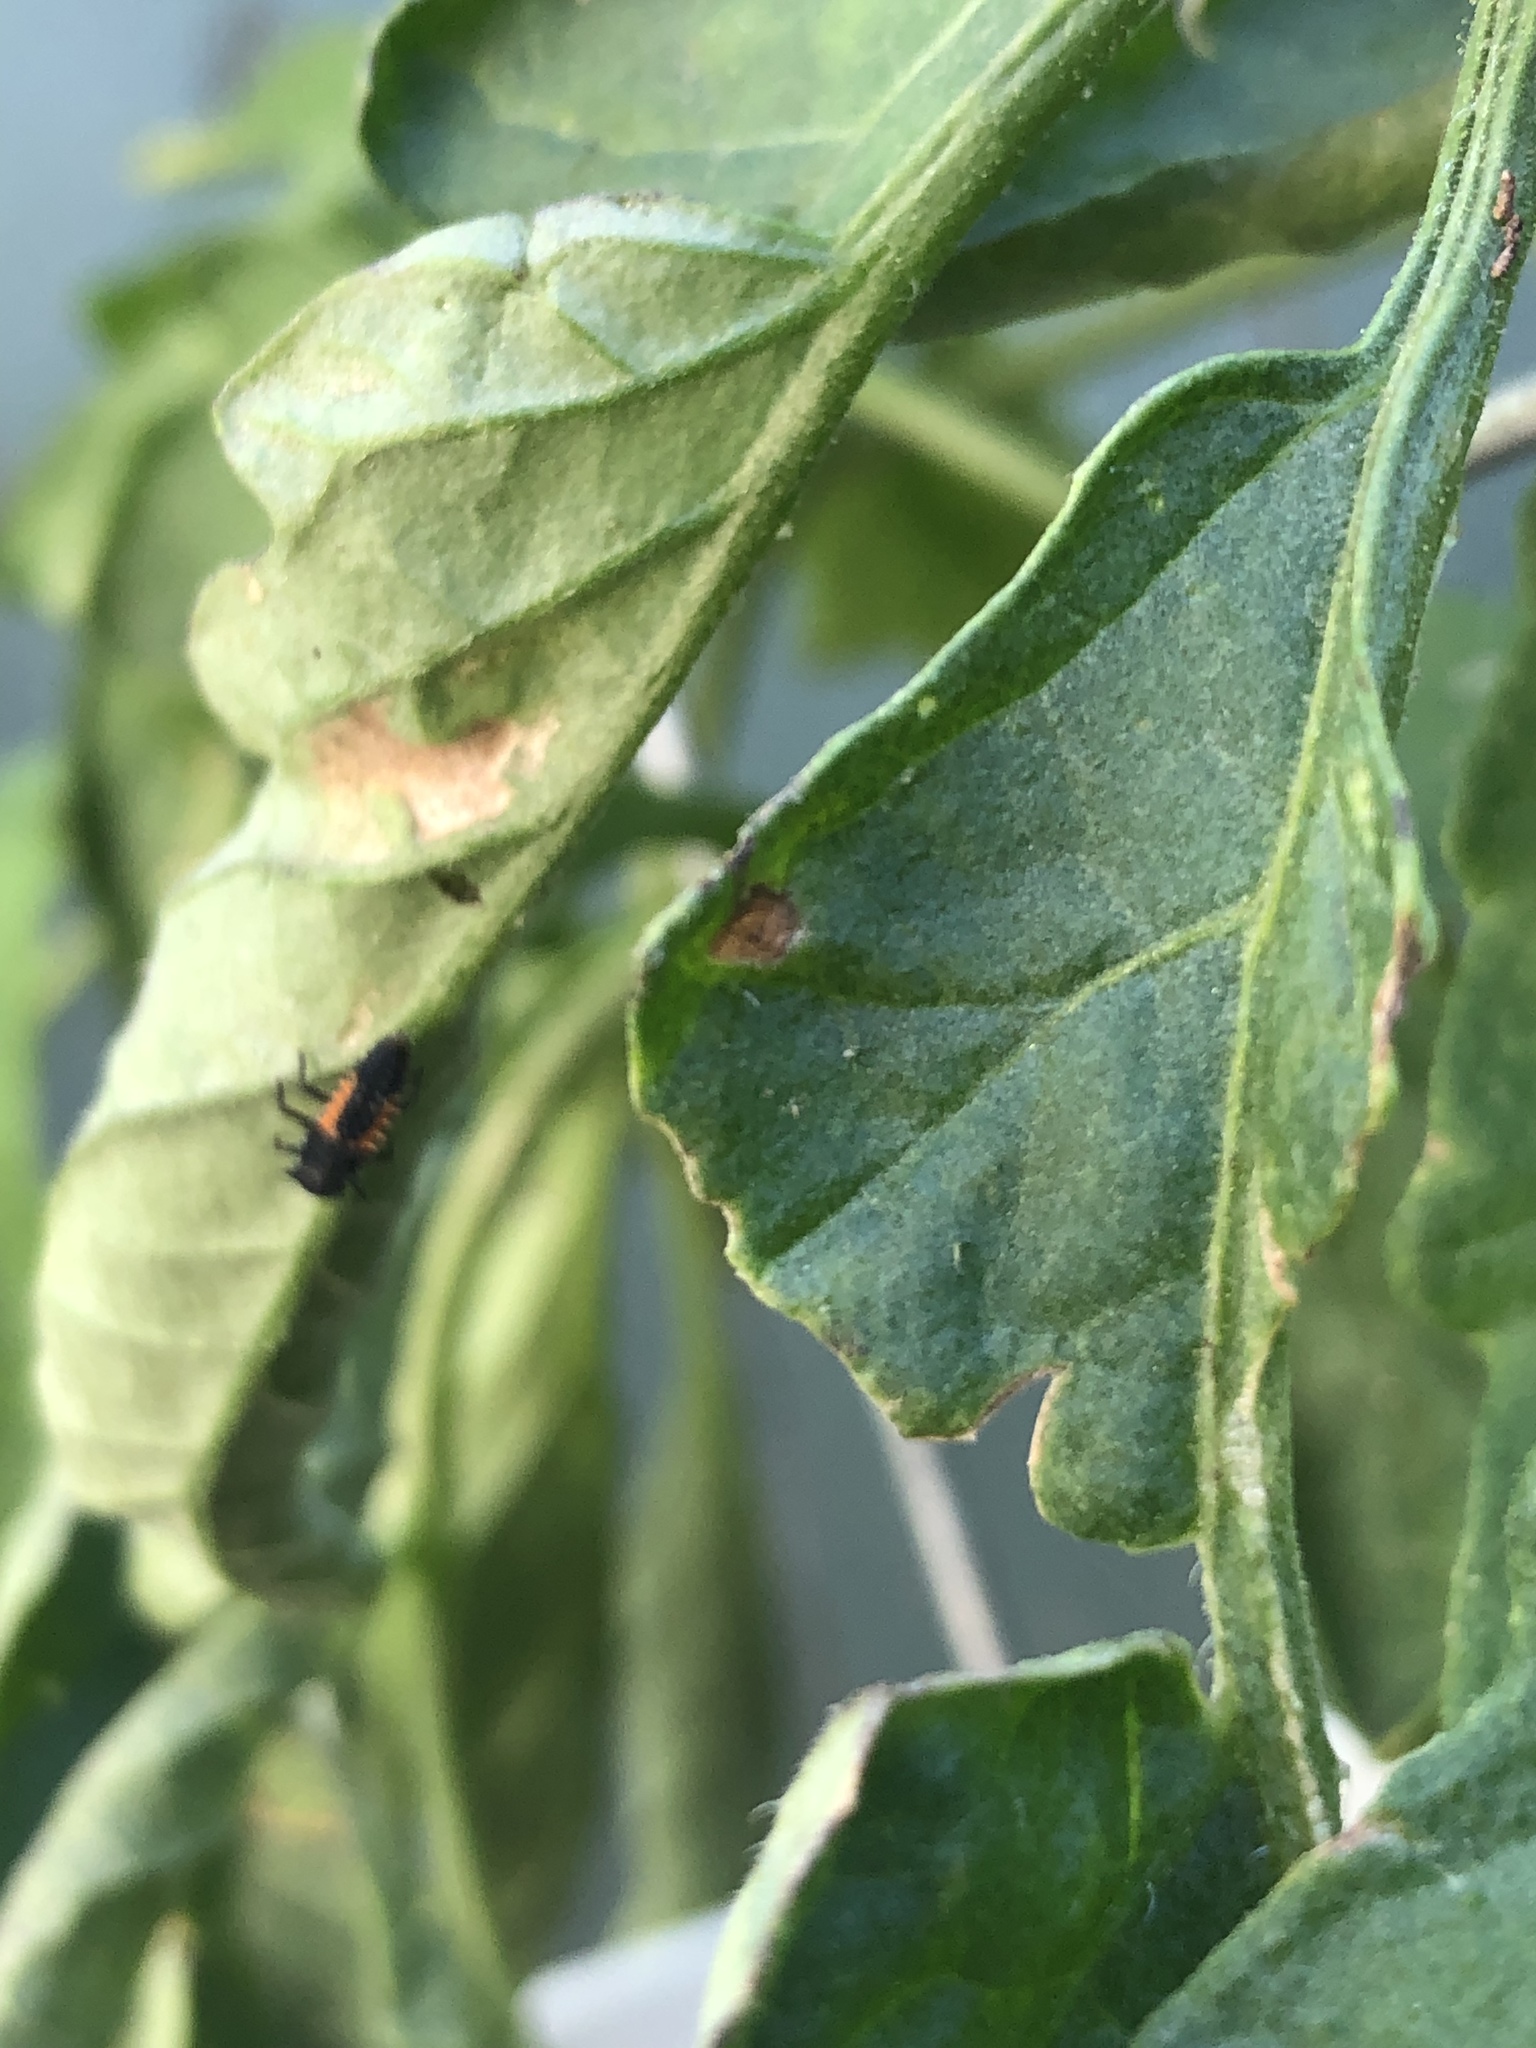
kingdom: Animalia
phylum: Arthropoda
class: Insecta
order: Coleoptera
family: Coccinellidae
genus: Harmonia
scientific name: Harmonia axyridis
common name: Harlequin ladybird
